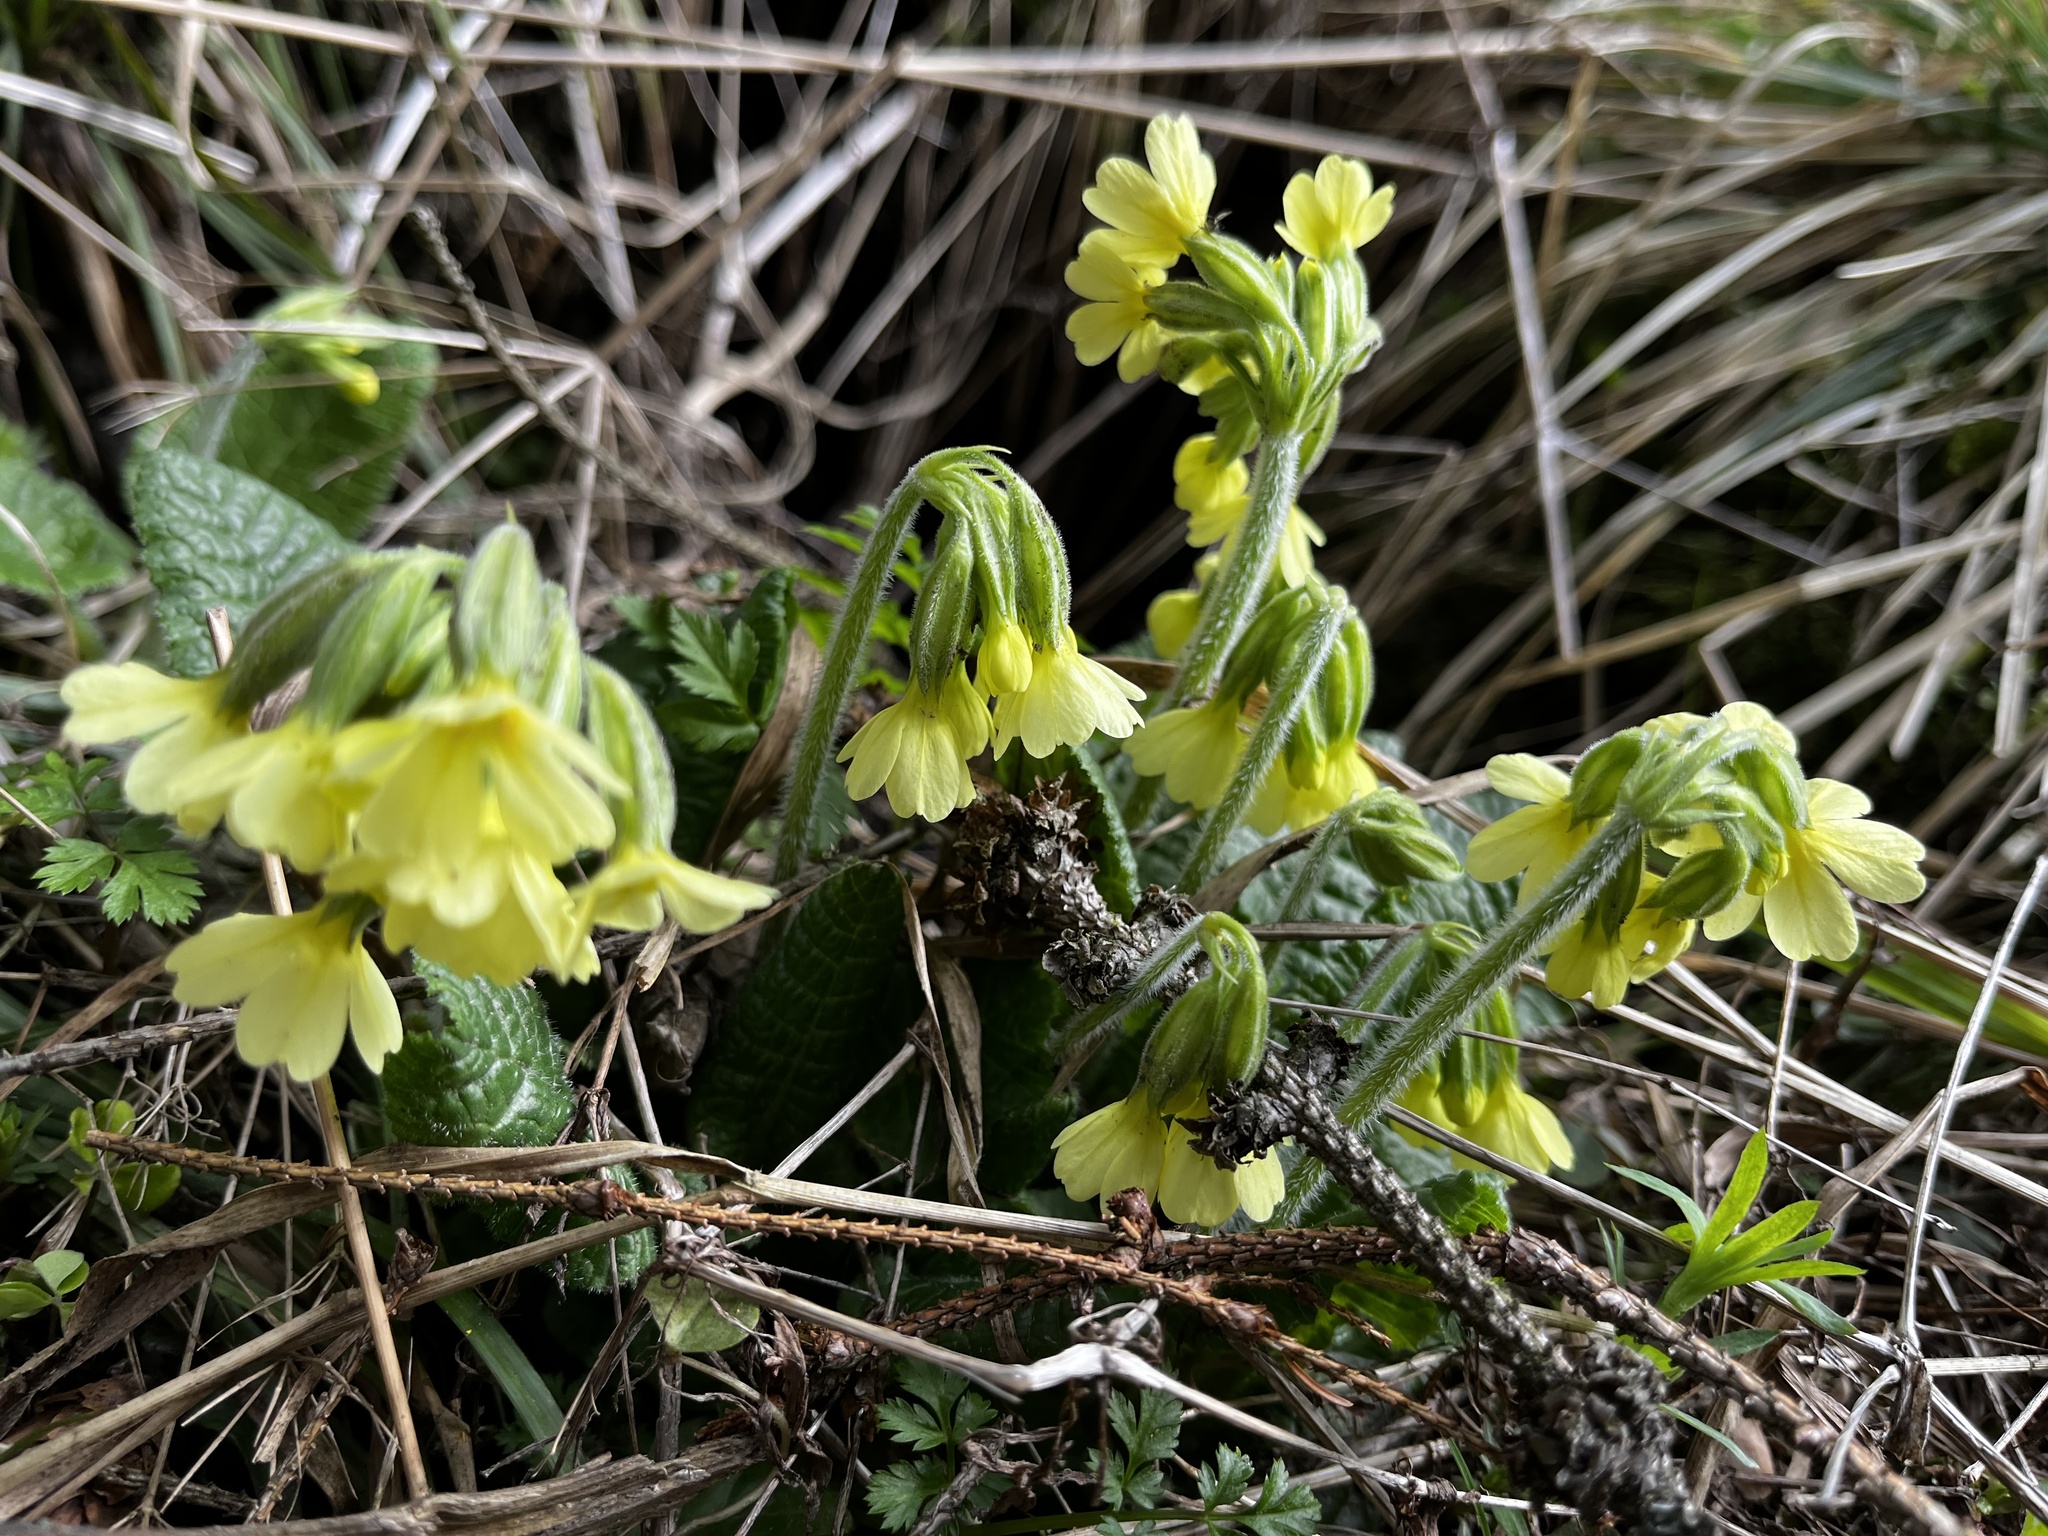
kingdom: Plantae
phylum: Tracheophyta
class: Magnoliopsida
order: Ericales
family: Primulaceae
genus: Primula
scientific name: Primula elatior
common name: Oxlip
